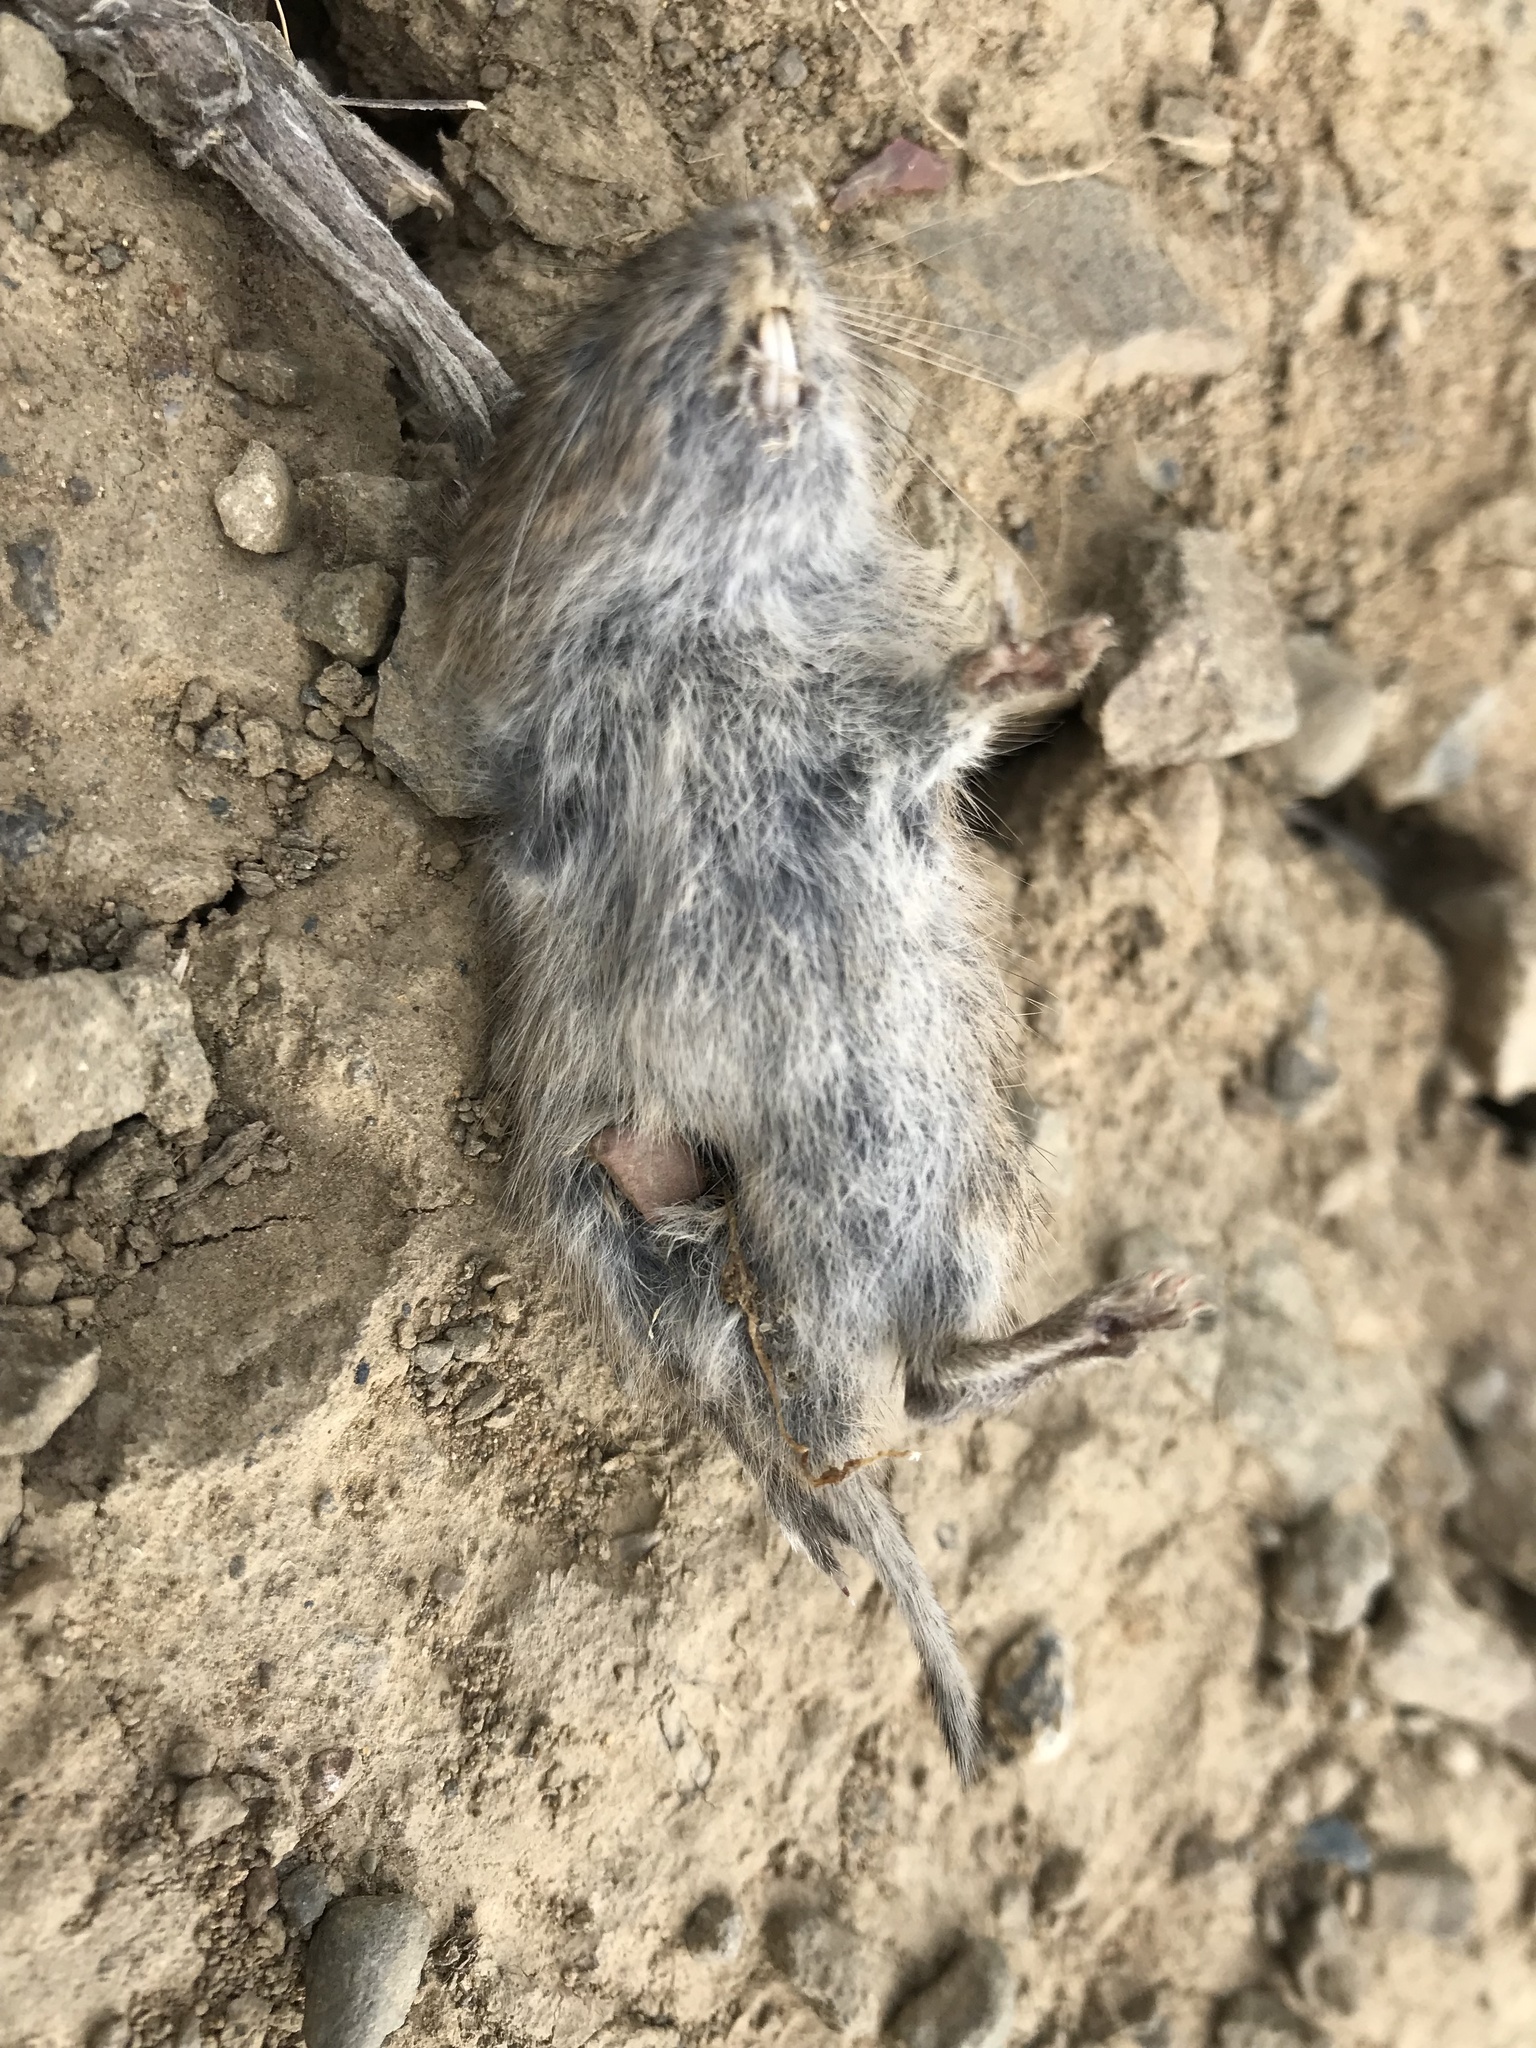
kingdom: Animalia
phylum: Chordata
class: Mammalia
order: Rodentia
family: Cricetidae
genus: Microtus
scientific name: Microtus californicus
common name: California vole
